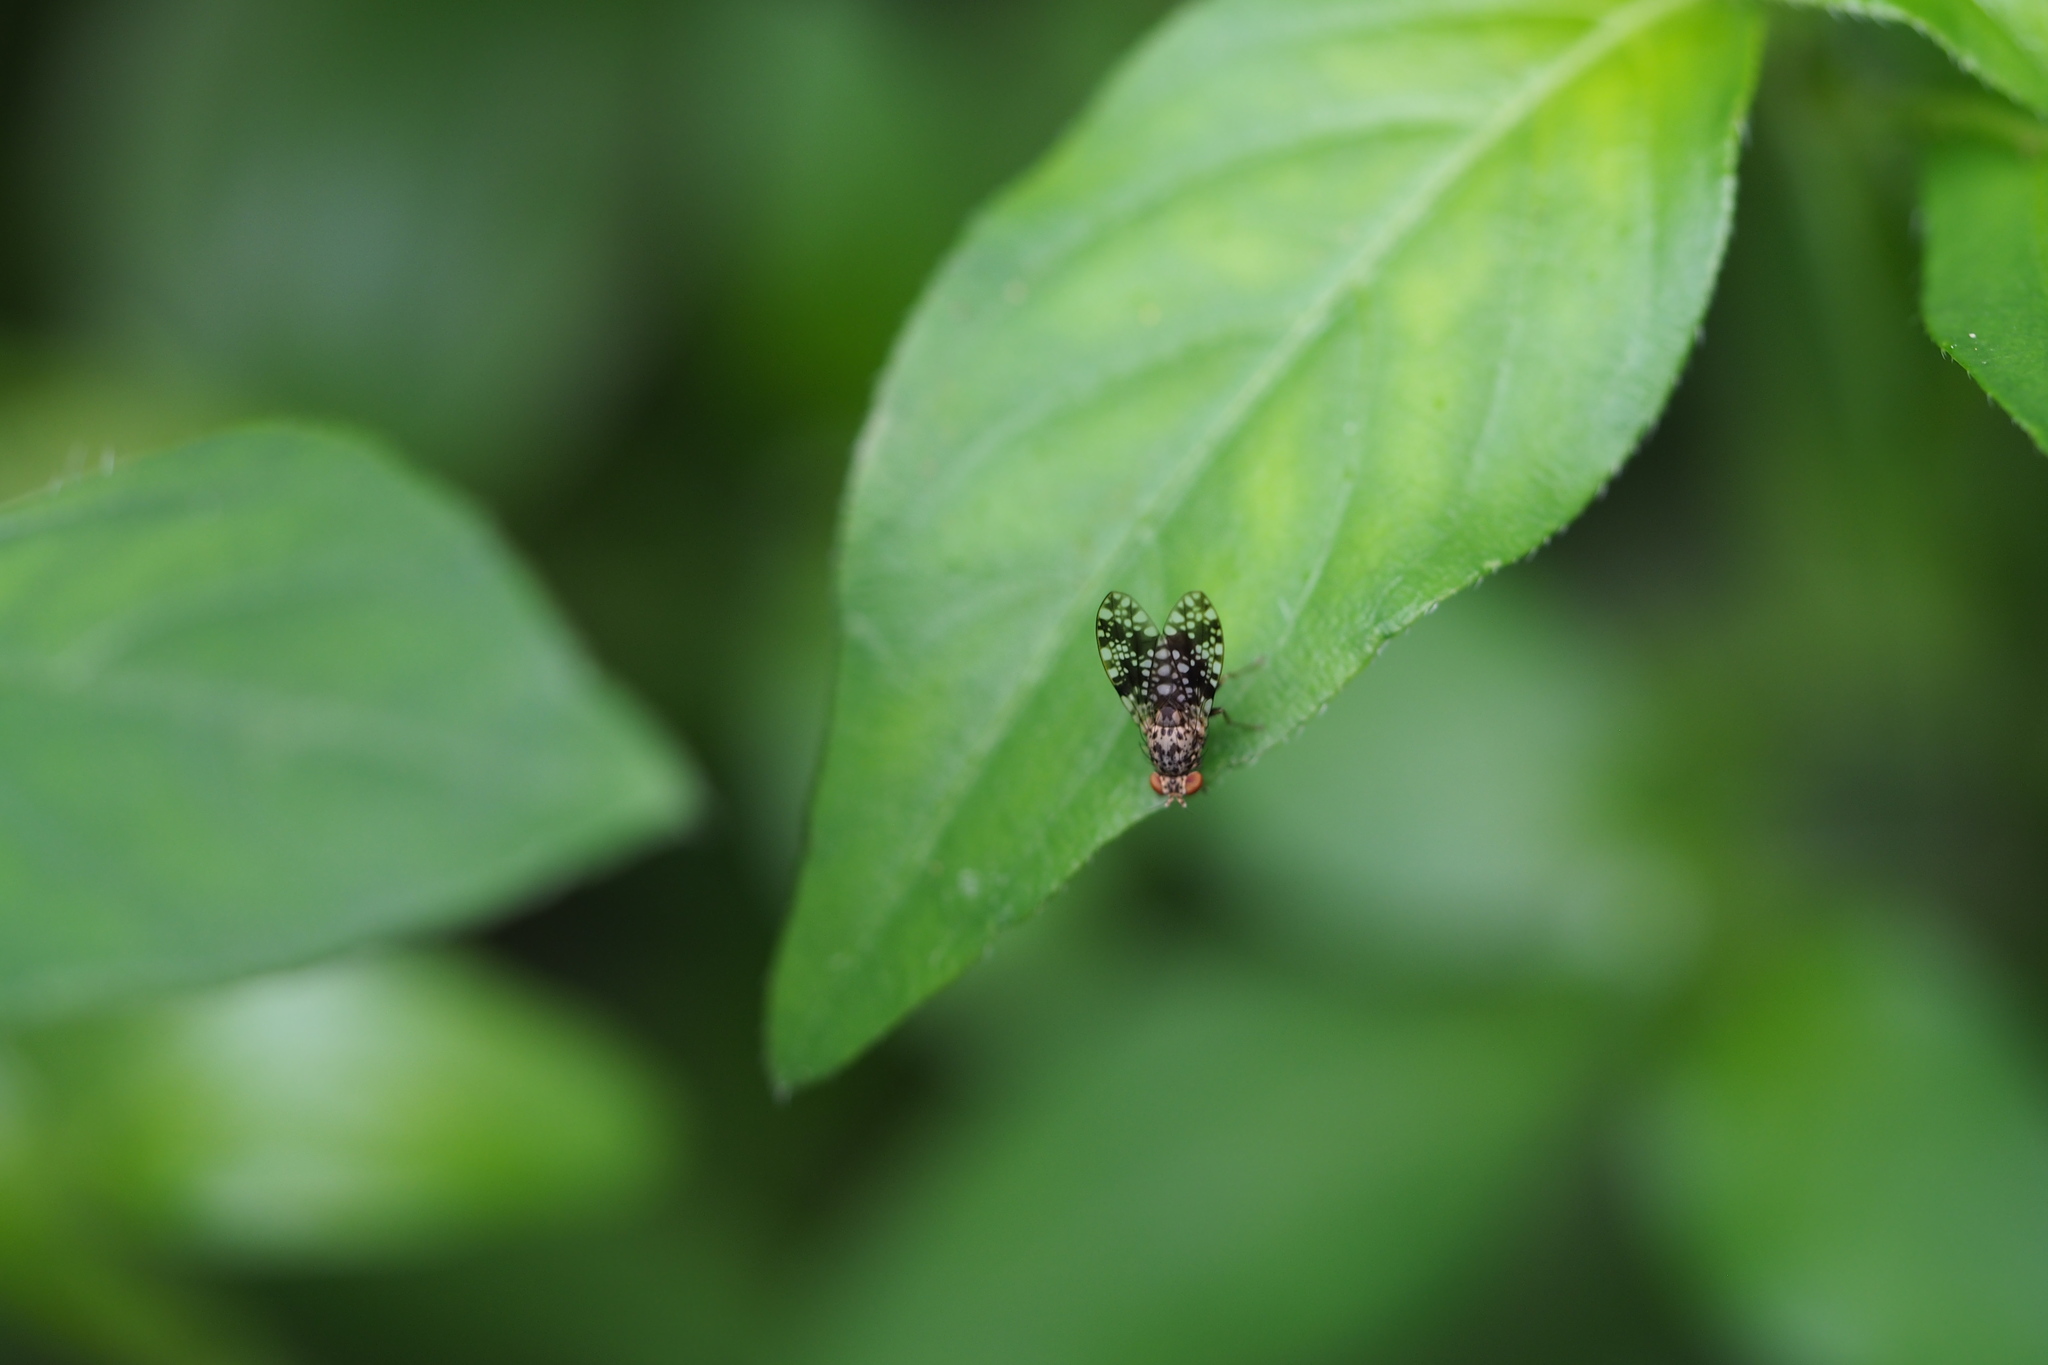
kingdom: Animalia
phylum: Arthropoda
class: Insecta
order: Diptera
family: Lauxaniidae
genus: Homoneura
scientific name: Homoneura euaresta
